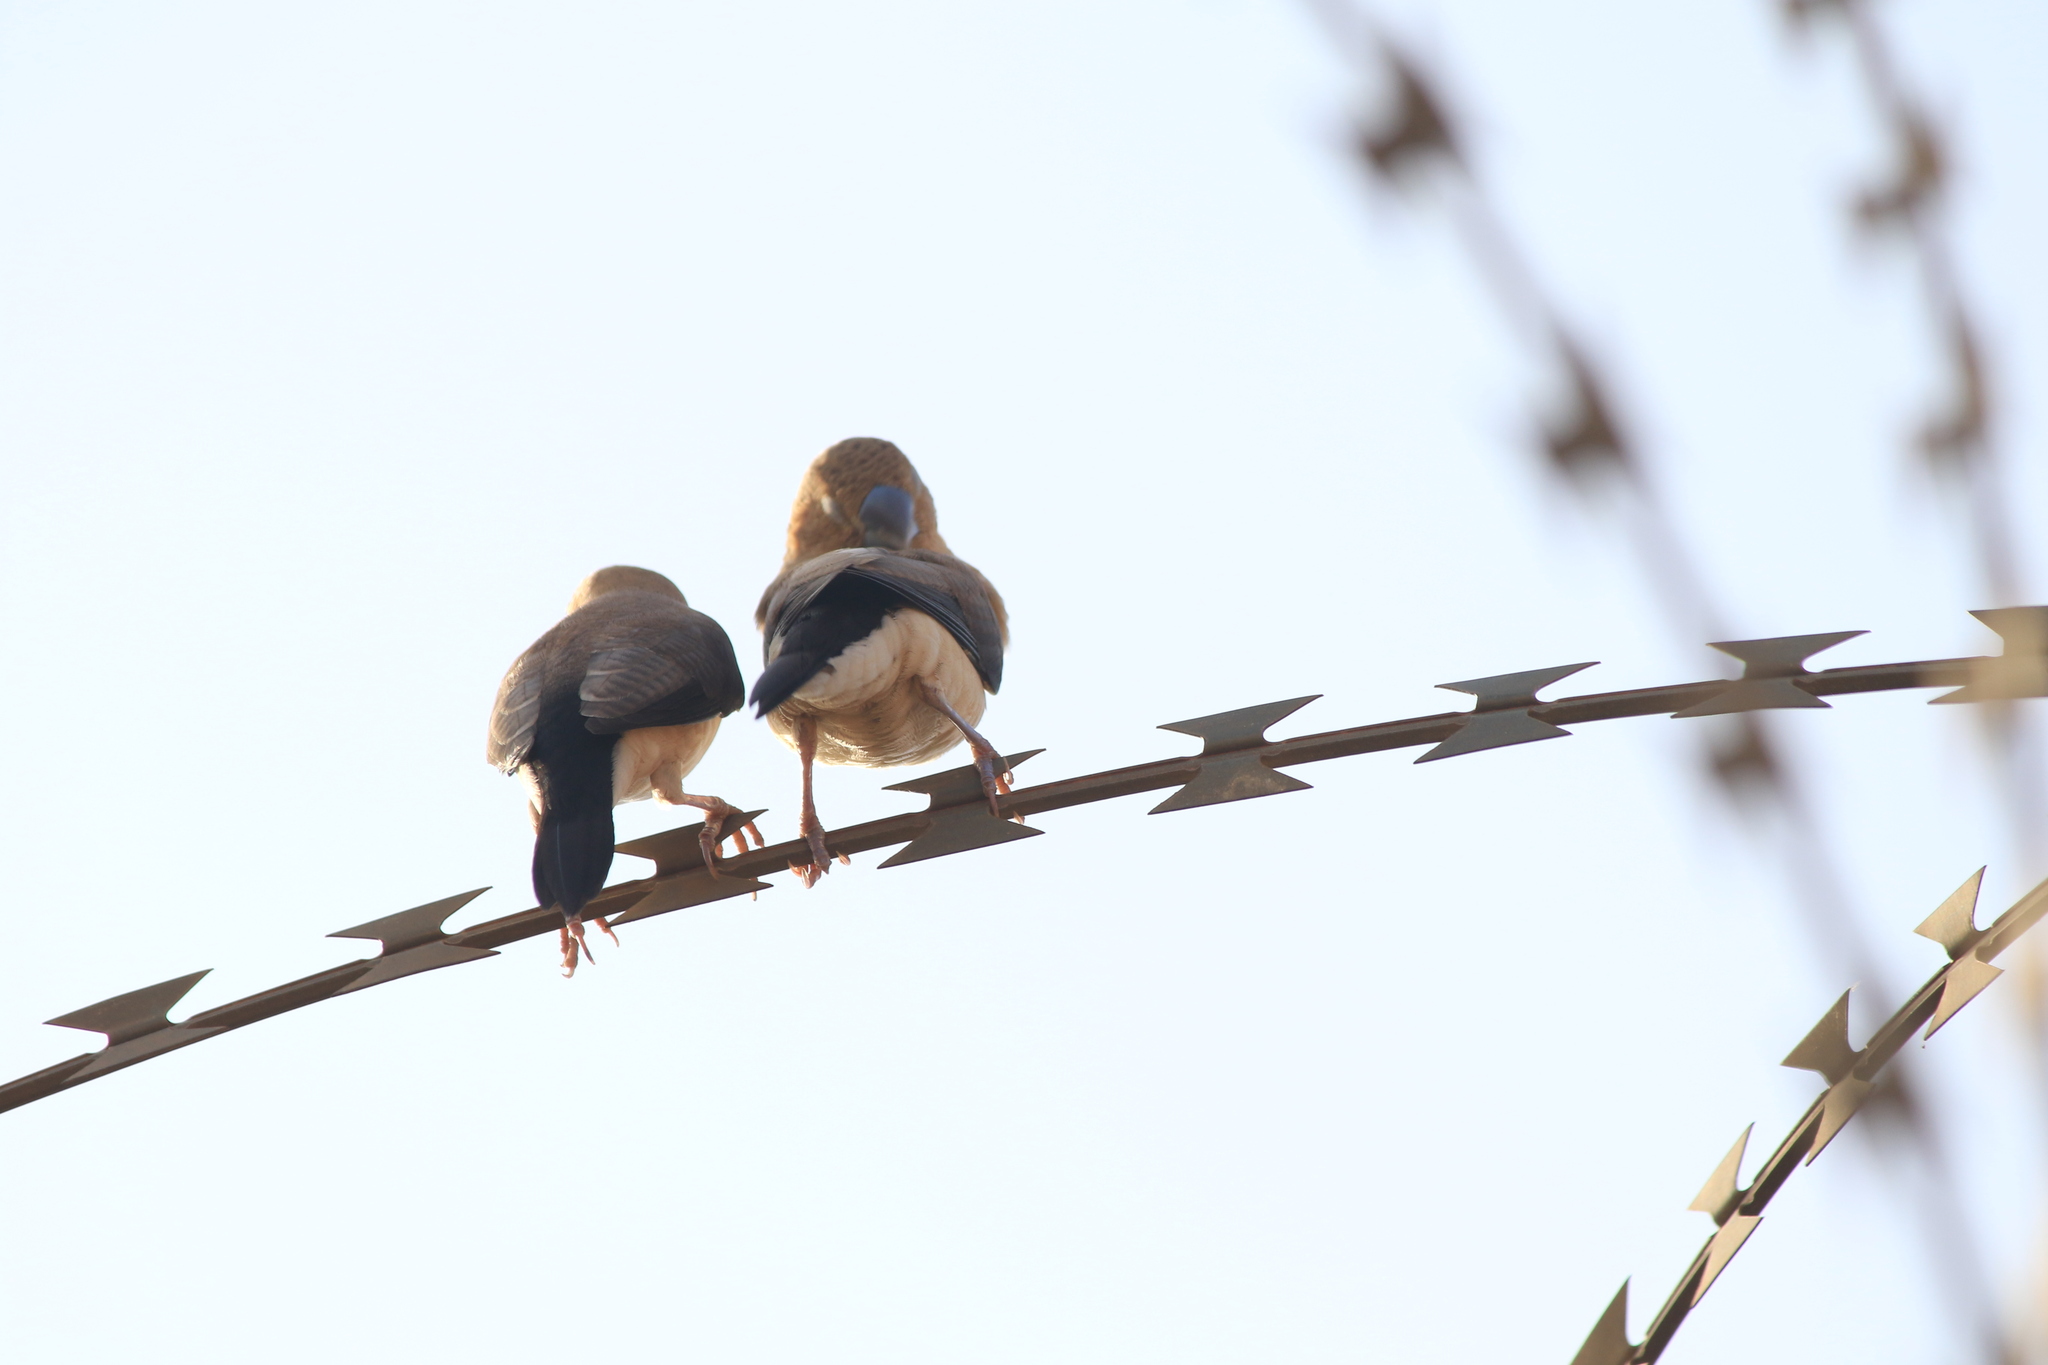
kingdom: Animalia
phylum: Chordata
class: Aves
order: Passeriformes
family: Estrildidae
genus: Euodice
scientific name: Euodice cantans
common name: African silverbill
